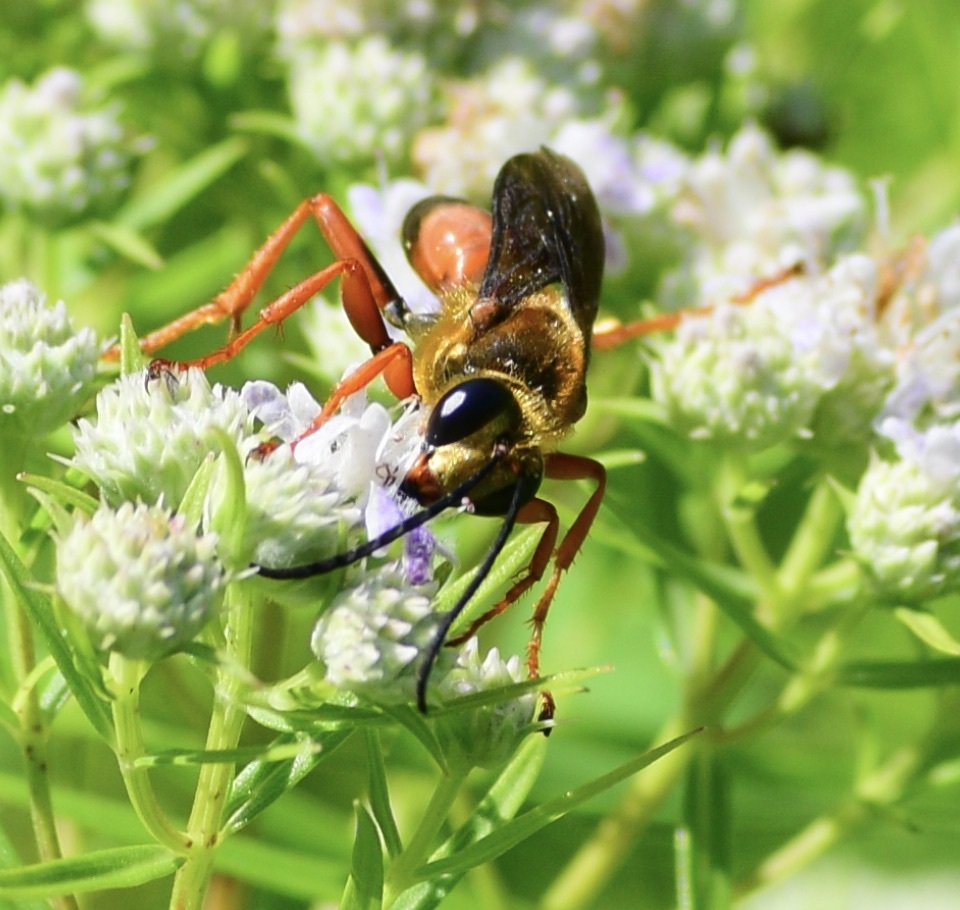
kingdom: Animalia
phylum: Arthropoda
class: Insecta
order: Hymenoptera
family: Sphecidae
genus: Sphex
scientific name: Sphex ichneumoneus
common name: Great golden digger wasp
